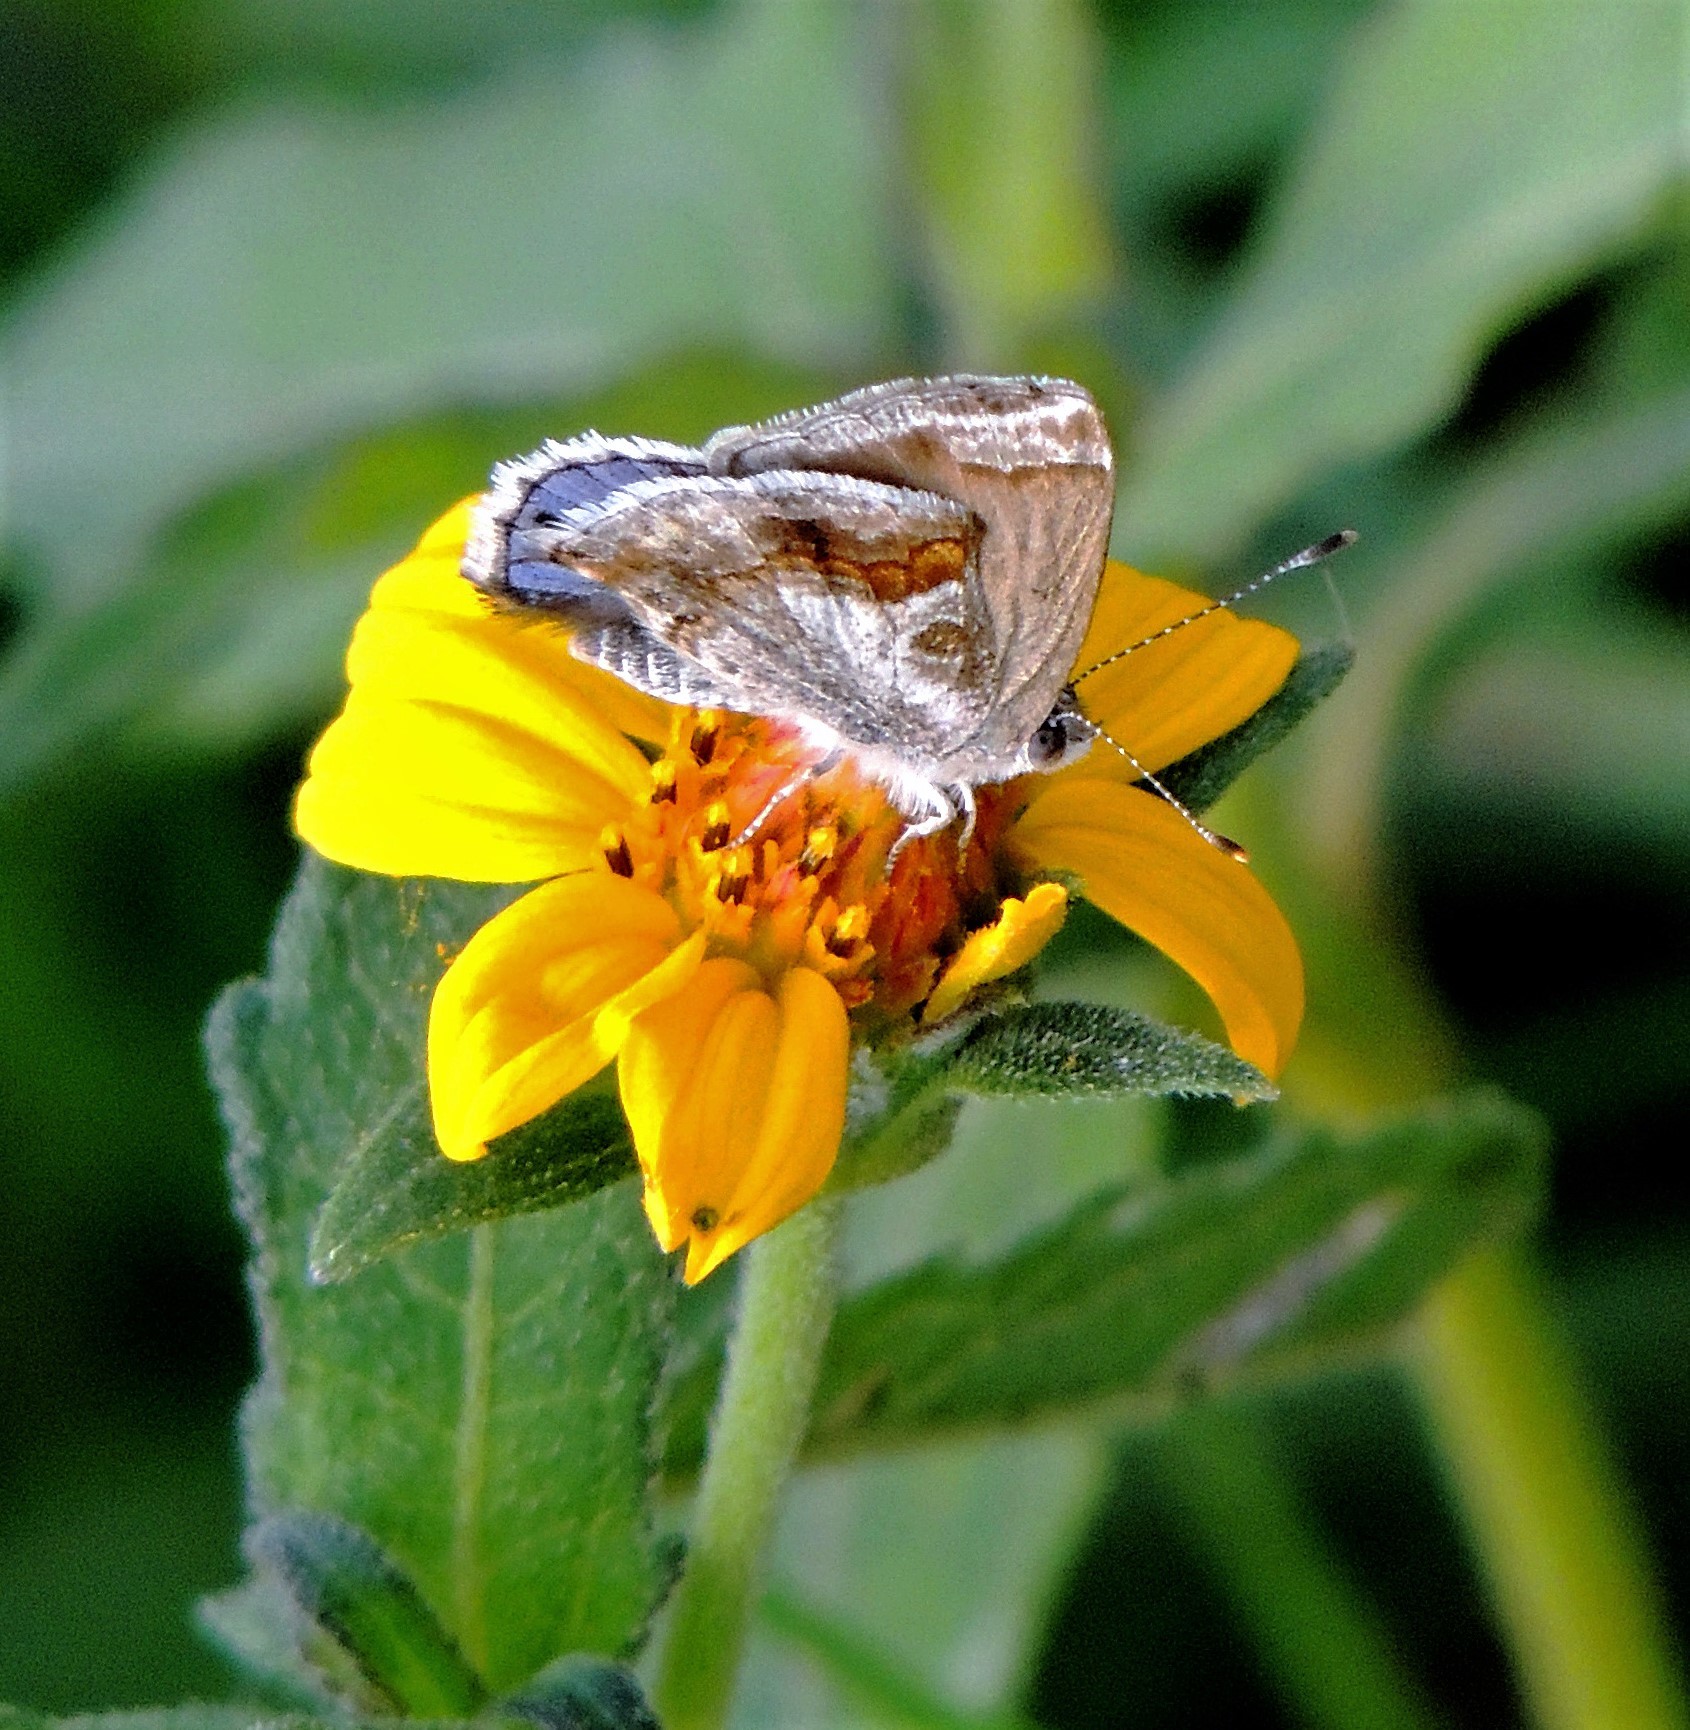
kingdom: Animalia
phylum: Arthropoda
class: Insecta
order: Lepidoptera
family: Lycaenidae
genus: Strymon
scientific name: Strymon bazochii
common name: Lantana scrub-hairstreak
